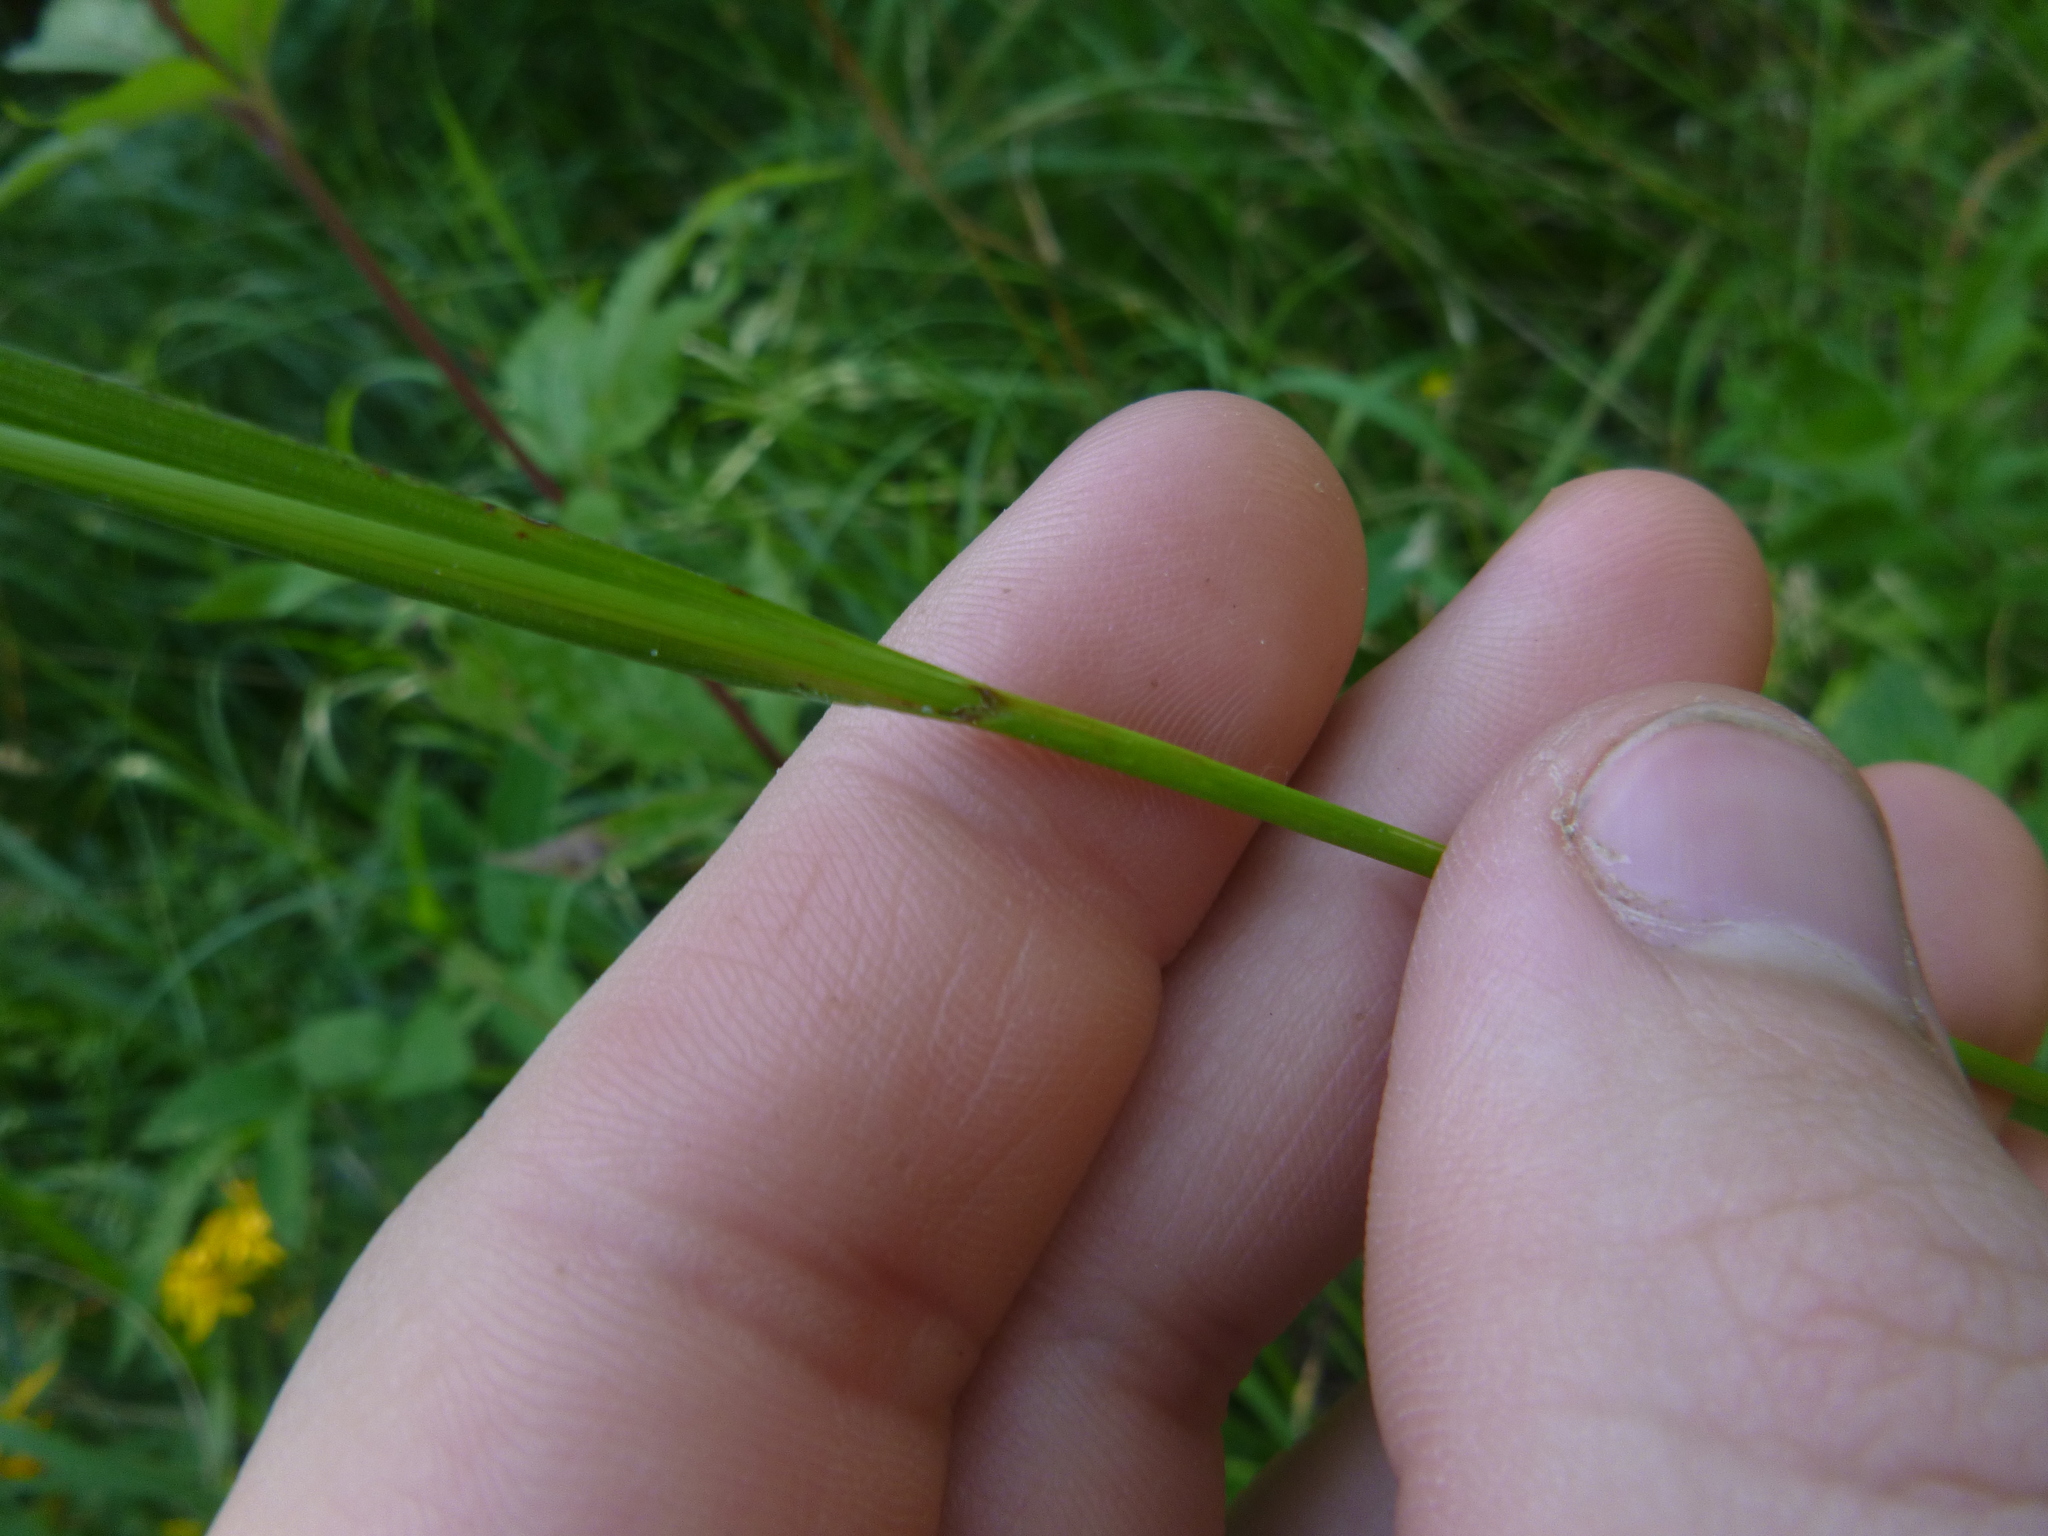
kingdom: Plantae
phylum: Tracheophyta
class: Liliopsida
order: Poales
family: Cyperaceae
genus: Carex
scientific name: Carex sylvatica
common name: Wood-sedge
